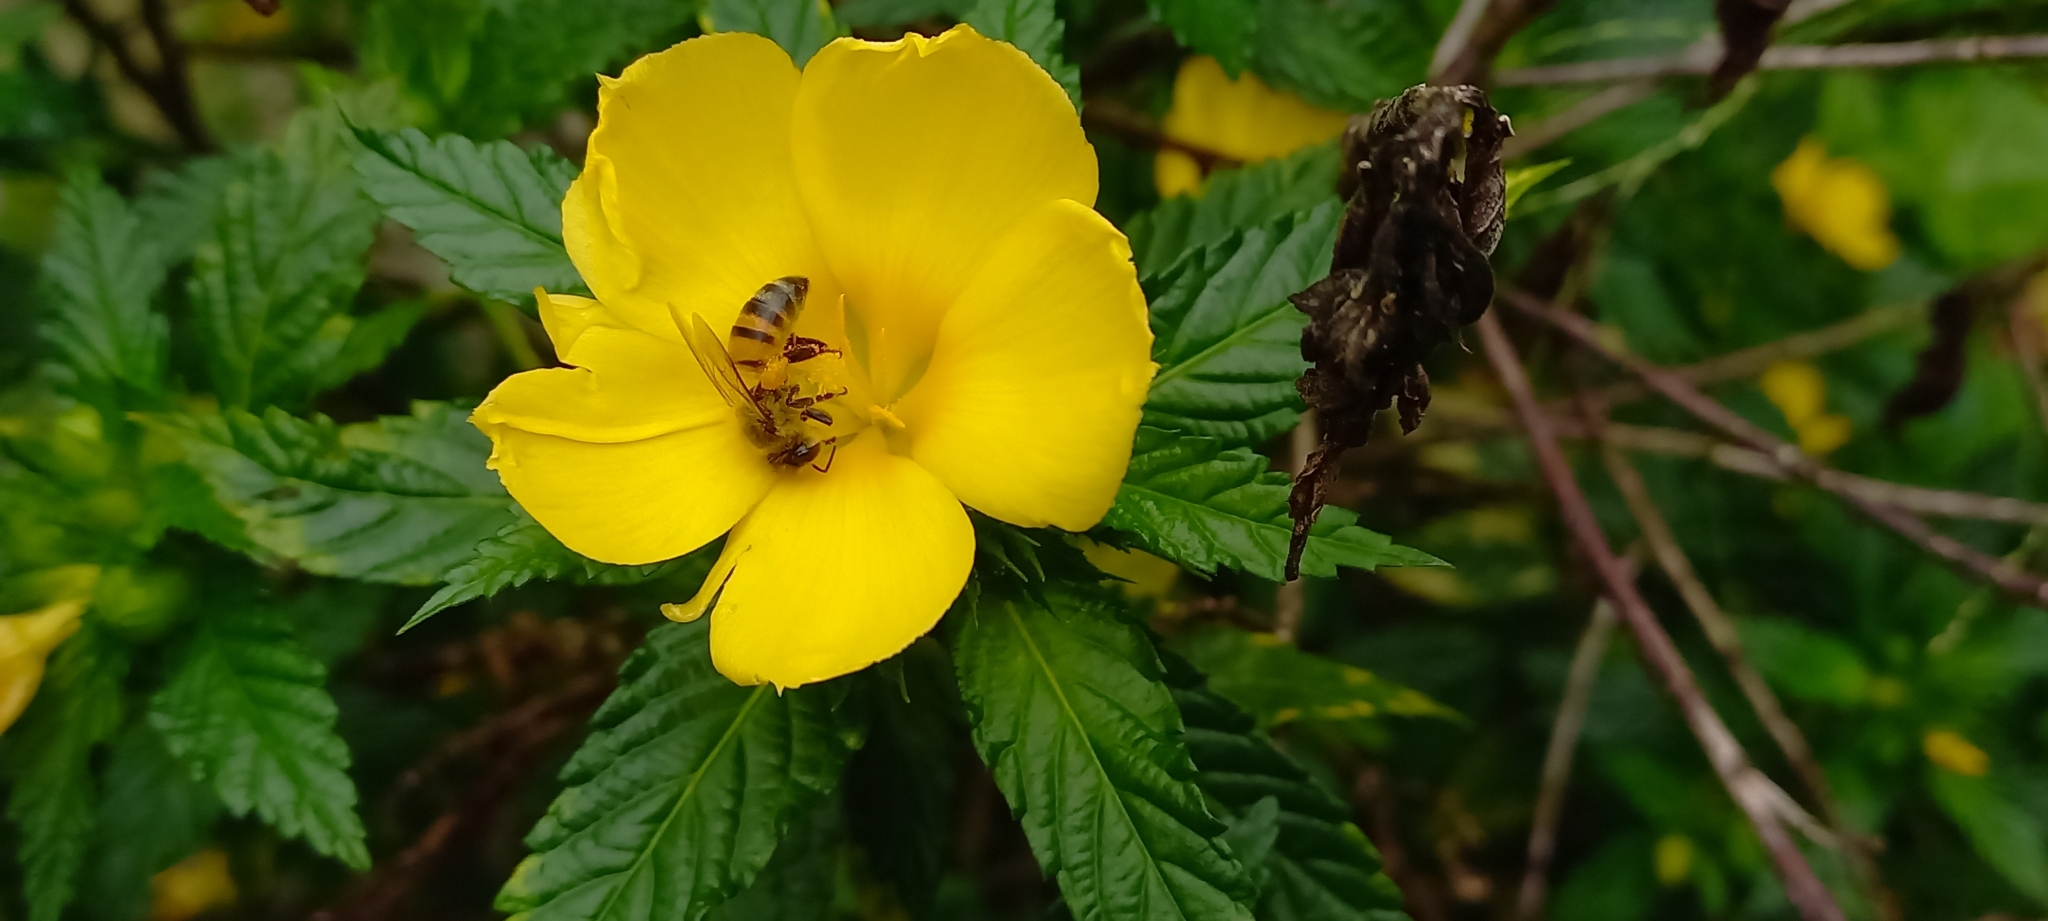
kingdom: Animalia
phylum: Arthropoda
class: Insecta
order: Hymenoptera
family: Apidae
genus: Apis
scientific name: Apis mellifera
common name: Honey bee
